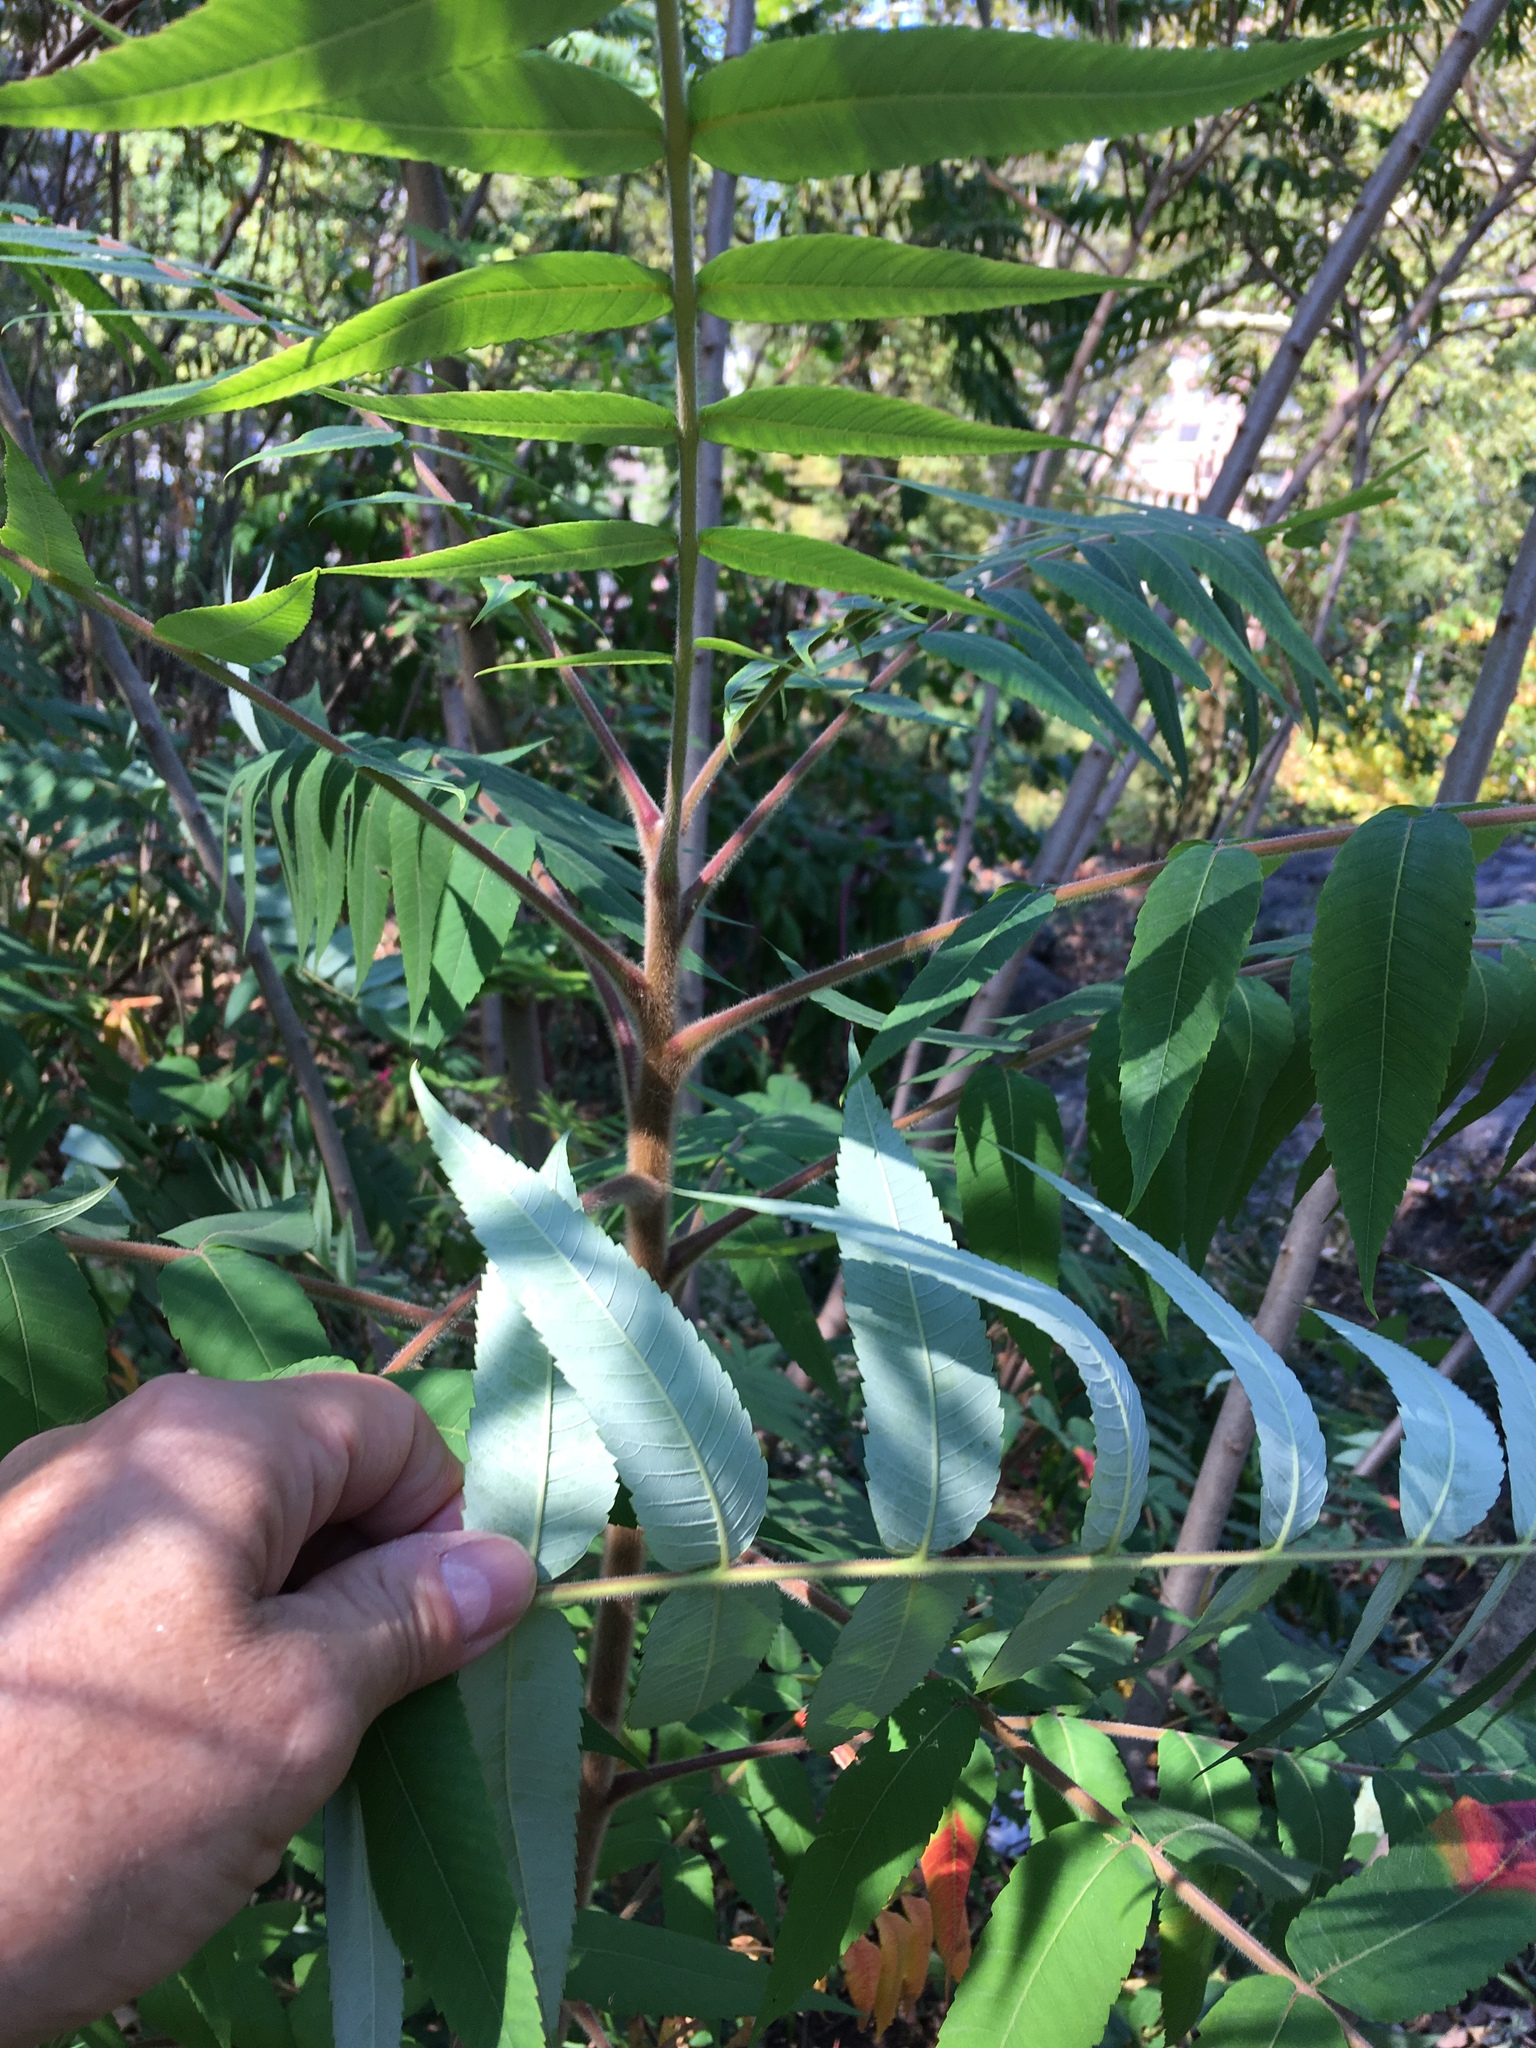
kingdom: Plantae
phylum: Tracheophyta
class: Magnoliopsida
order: Sapindales
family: Anacardiaceae
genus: Rhus
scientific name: Rhus typhina
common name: Staghorn sumac
